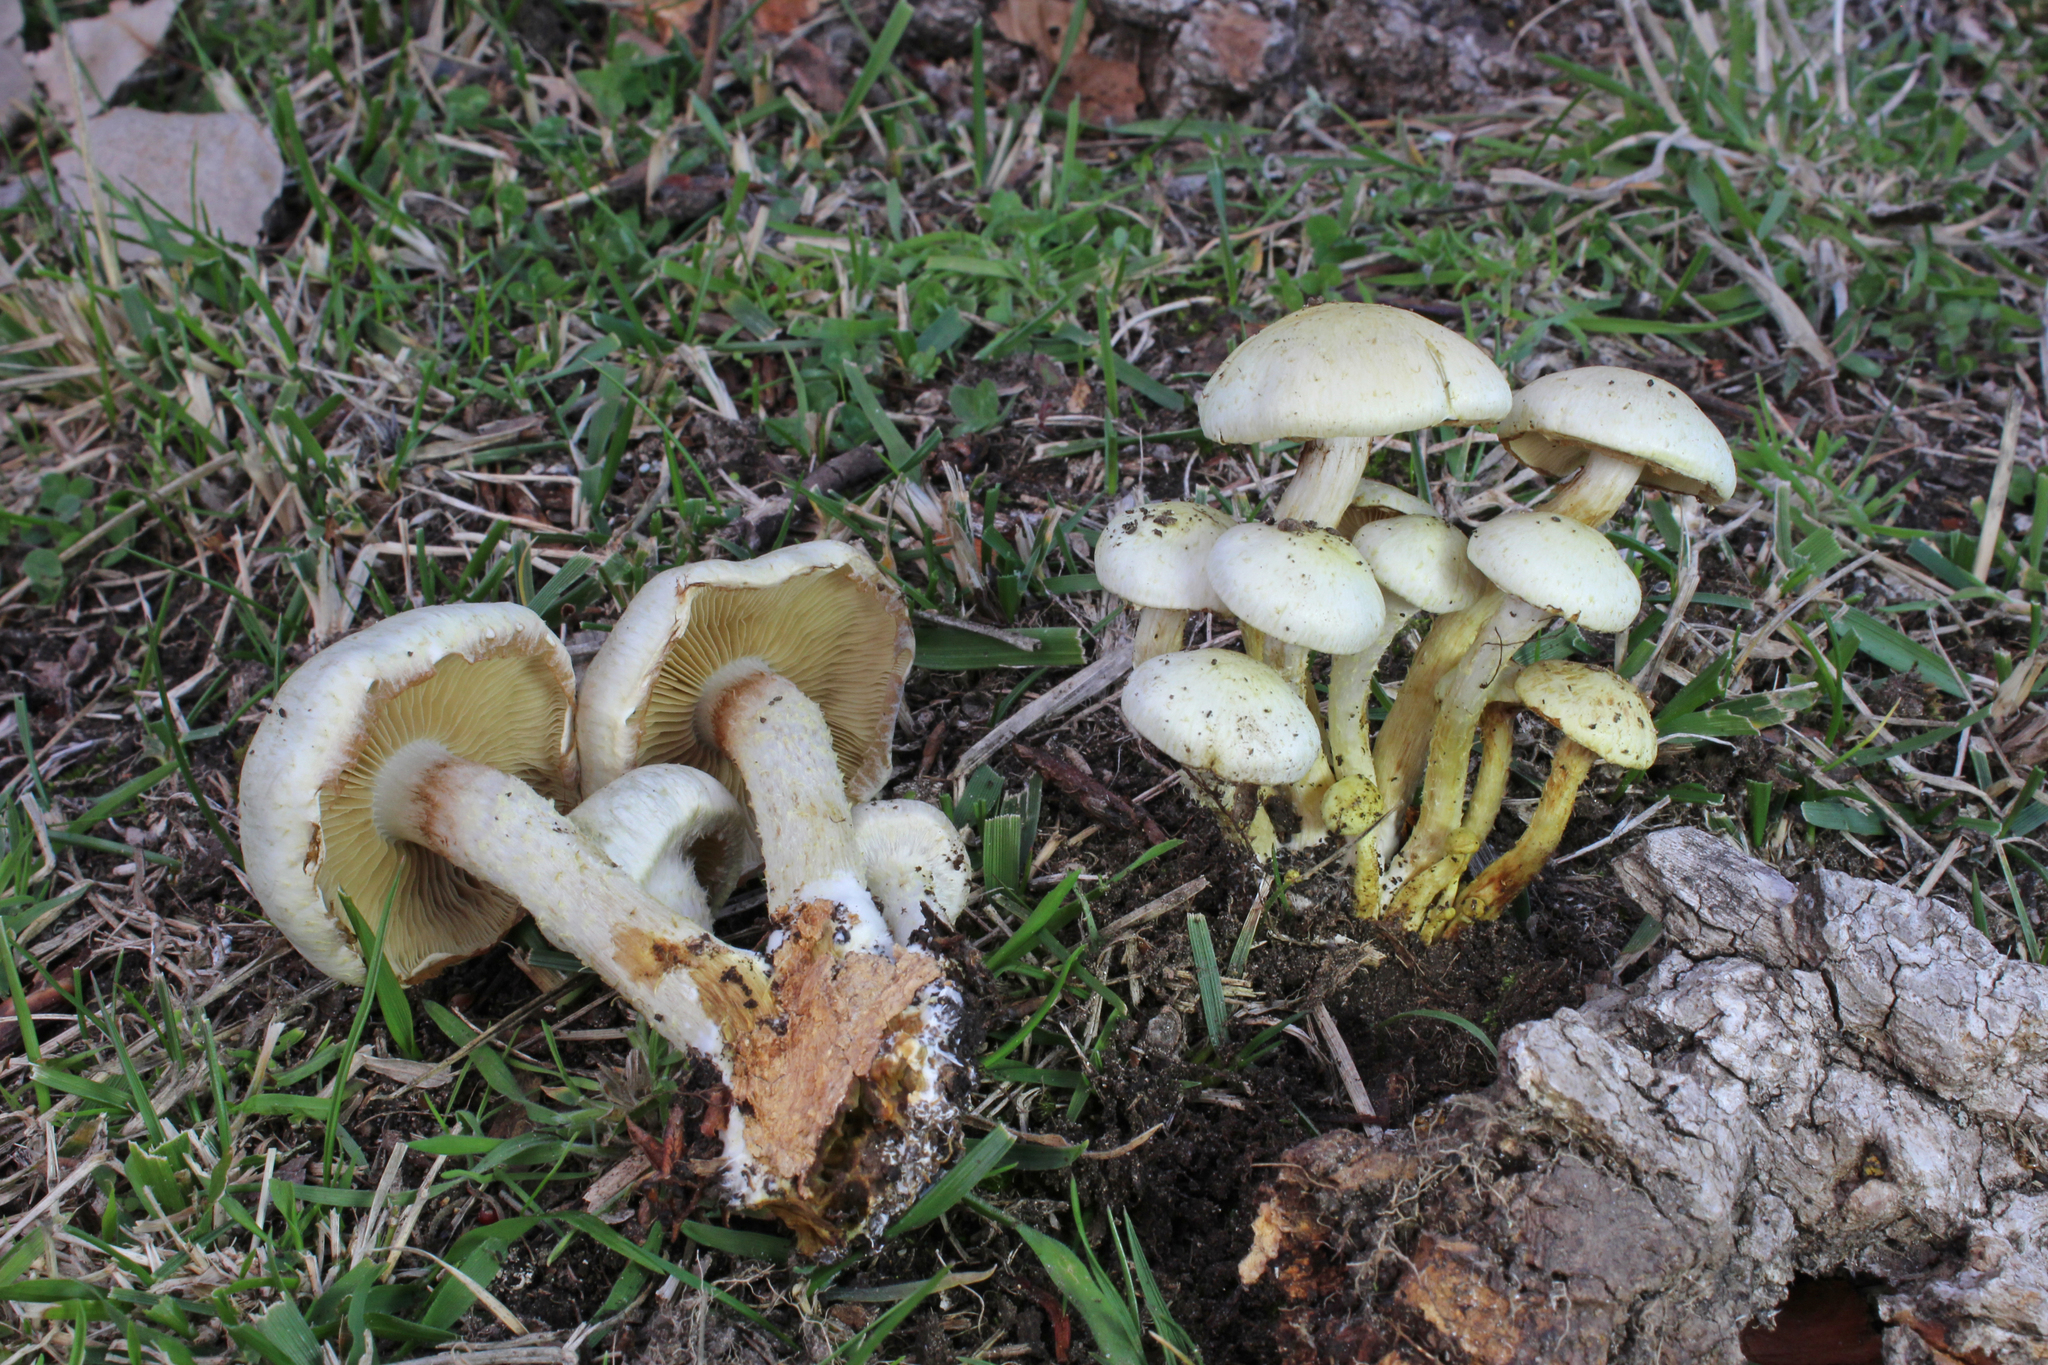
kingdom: Fungi
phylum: Basidiomycota
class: Agaricomycetes
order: Agaricales
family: Strophariaceae
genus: Pholiota
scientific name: Pholiota gummosa
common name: Sticky scalycap
